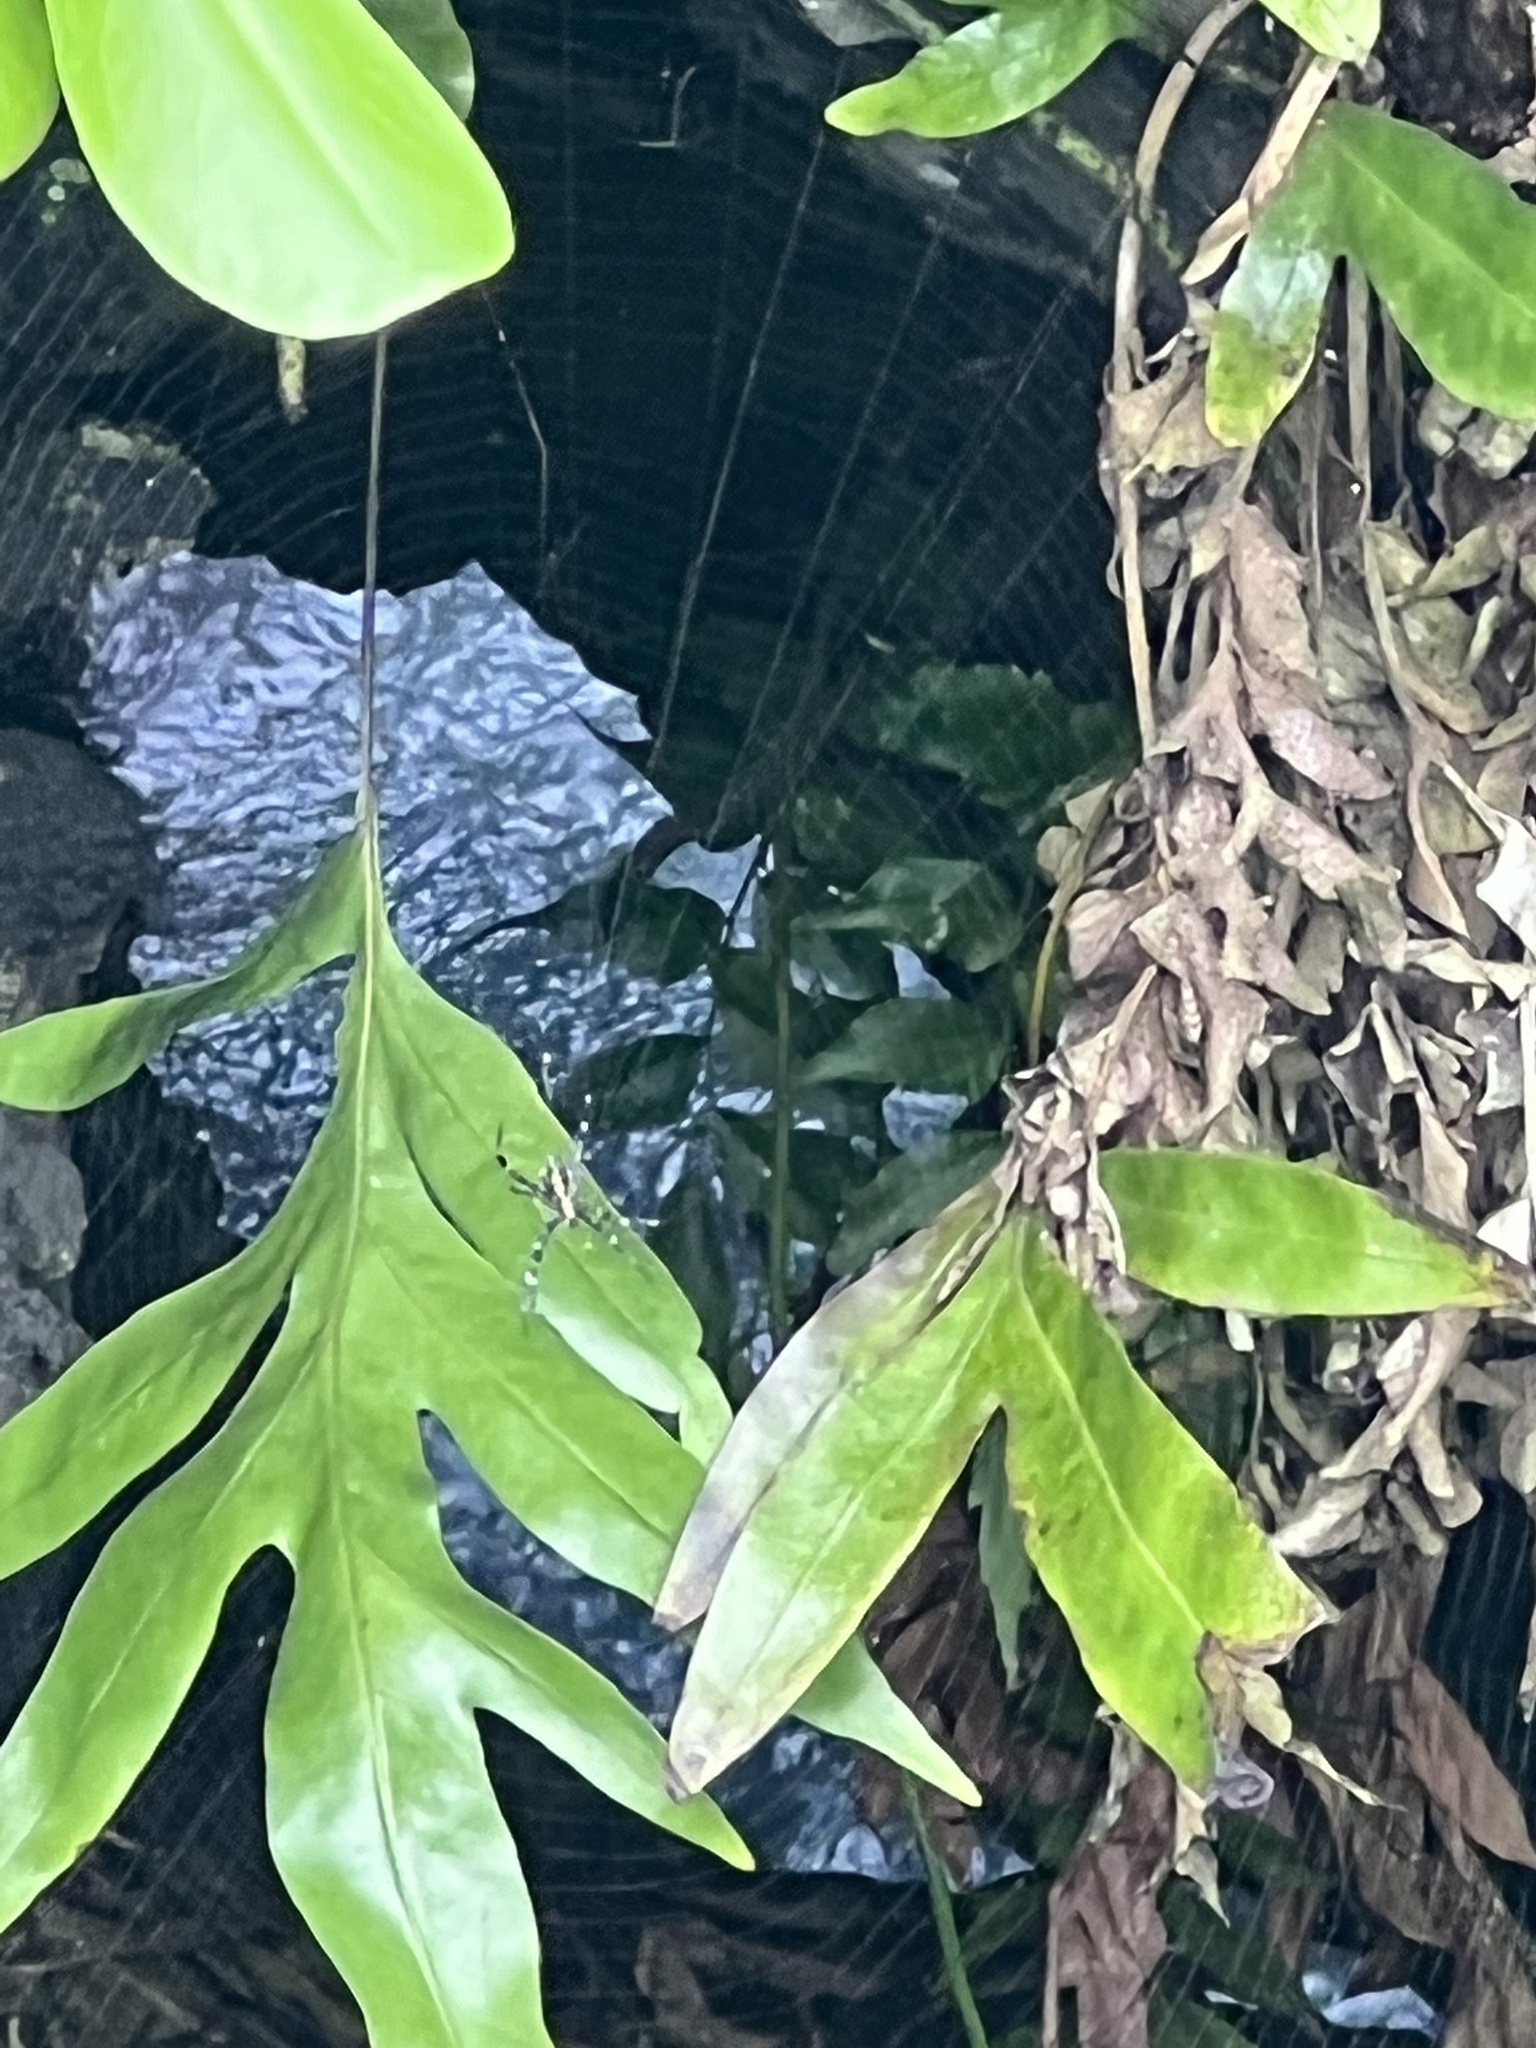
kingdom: Animalia
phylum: Arthropoda
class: Arachnida
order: Araneae
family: Araneidae
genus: Argiope
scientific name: Argiope appensa
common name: Garden spider
